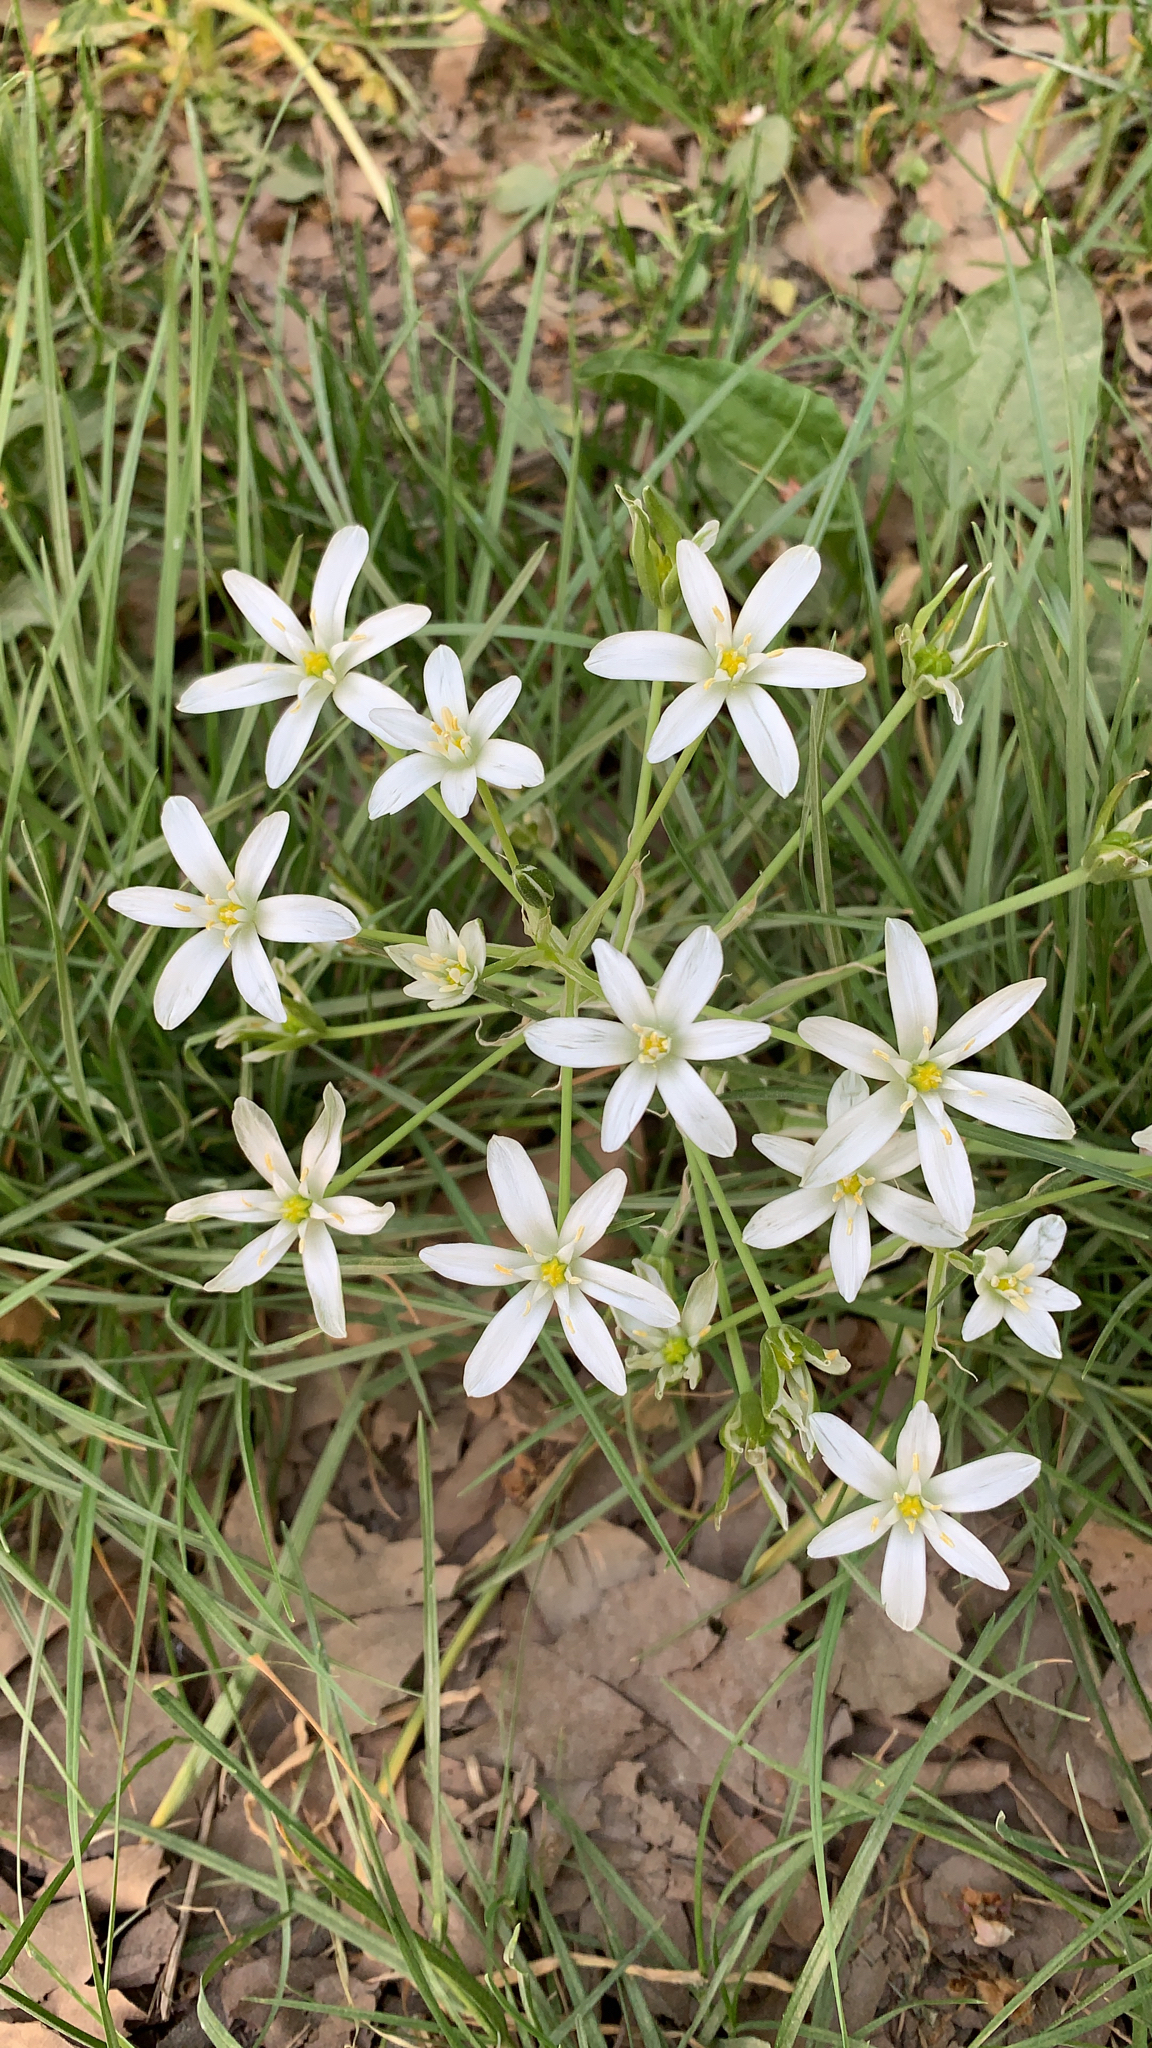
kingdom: Plantae
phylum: Tracheophyta
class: Liliopsida
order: Asparagales
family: Asparagaceae
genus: Ornithogalum
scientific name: Ornithogalum umbellatum
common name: Garden star-of-bethlehem
